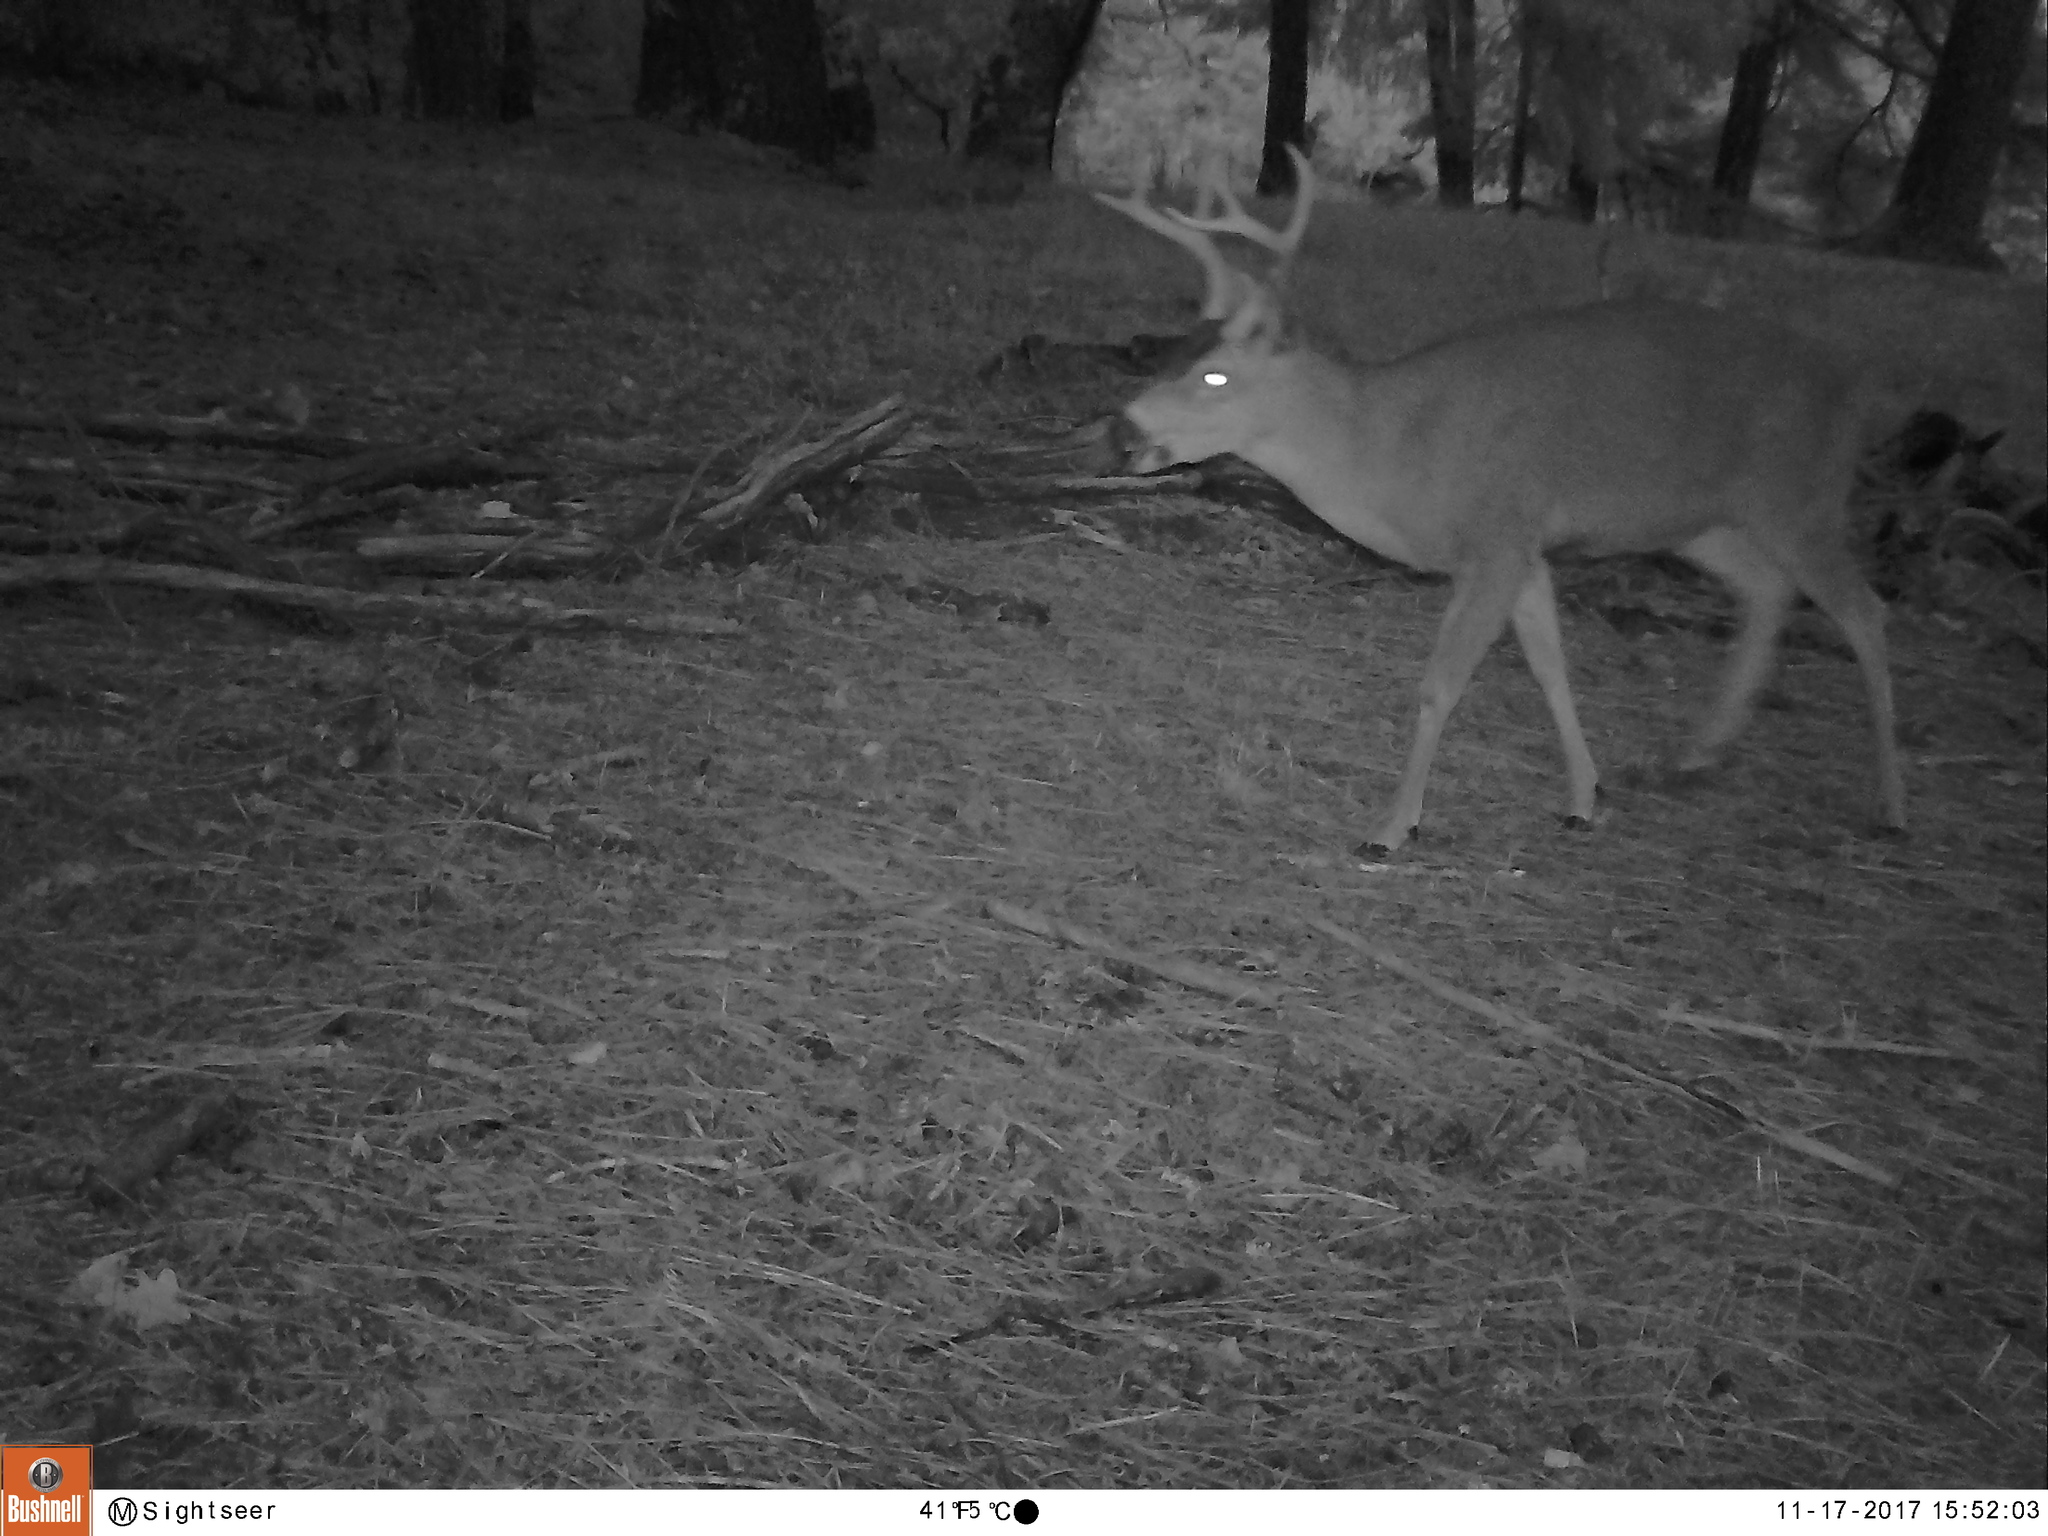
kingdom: Animalia
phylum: Chordata
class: Mammalia
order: Artiodactyla
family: Cervidae
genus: Odocoileus
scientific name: Odocoileus hemionus
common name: Mule deer
